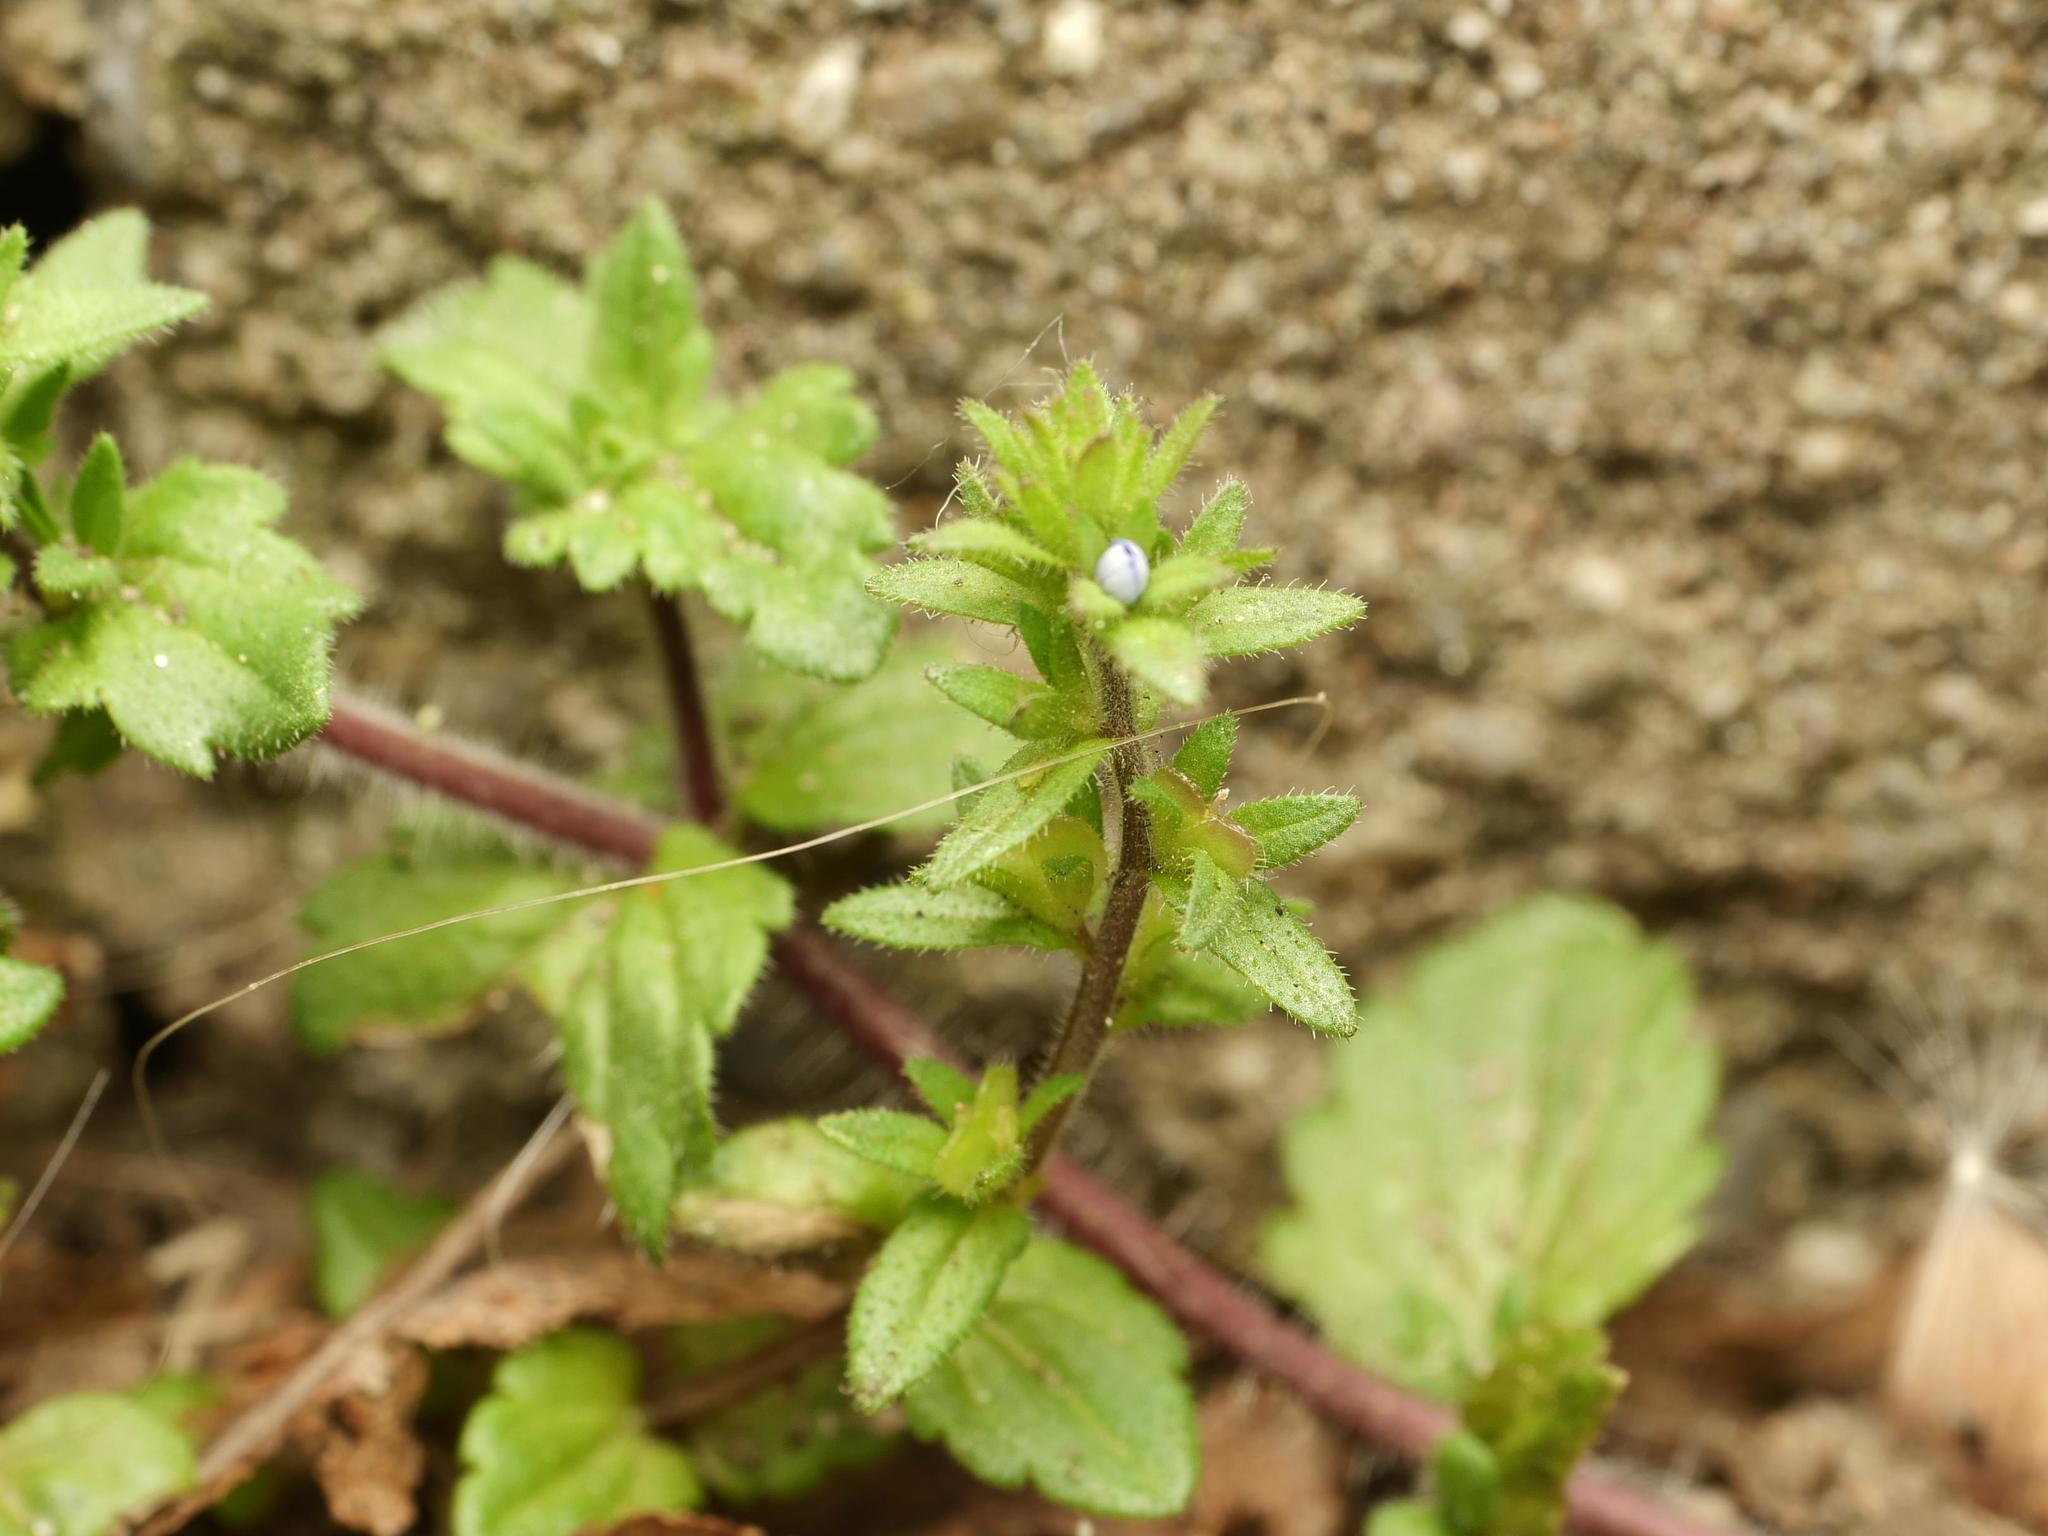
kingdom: Plantae
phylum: Tracheophyta
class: Magnoliopsida
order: Lamiales
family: Plantaginaceae
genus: Veronica
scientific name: Veronica arvensis
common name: Corn speedwell
